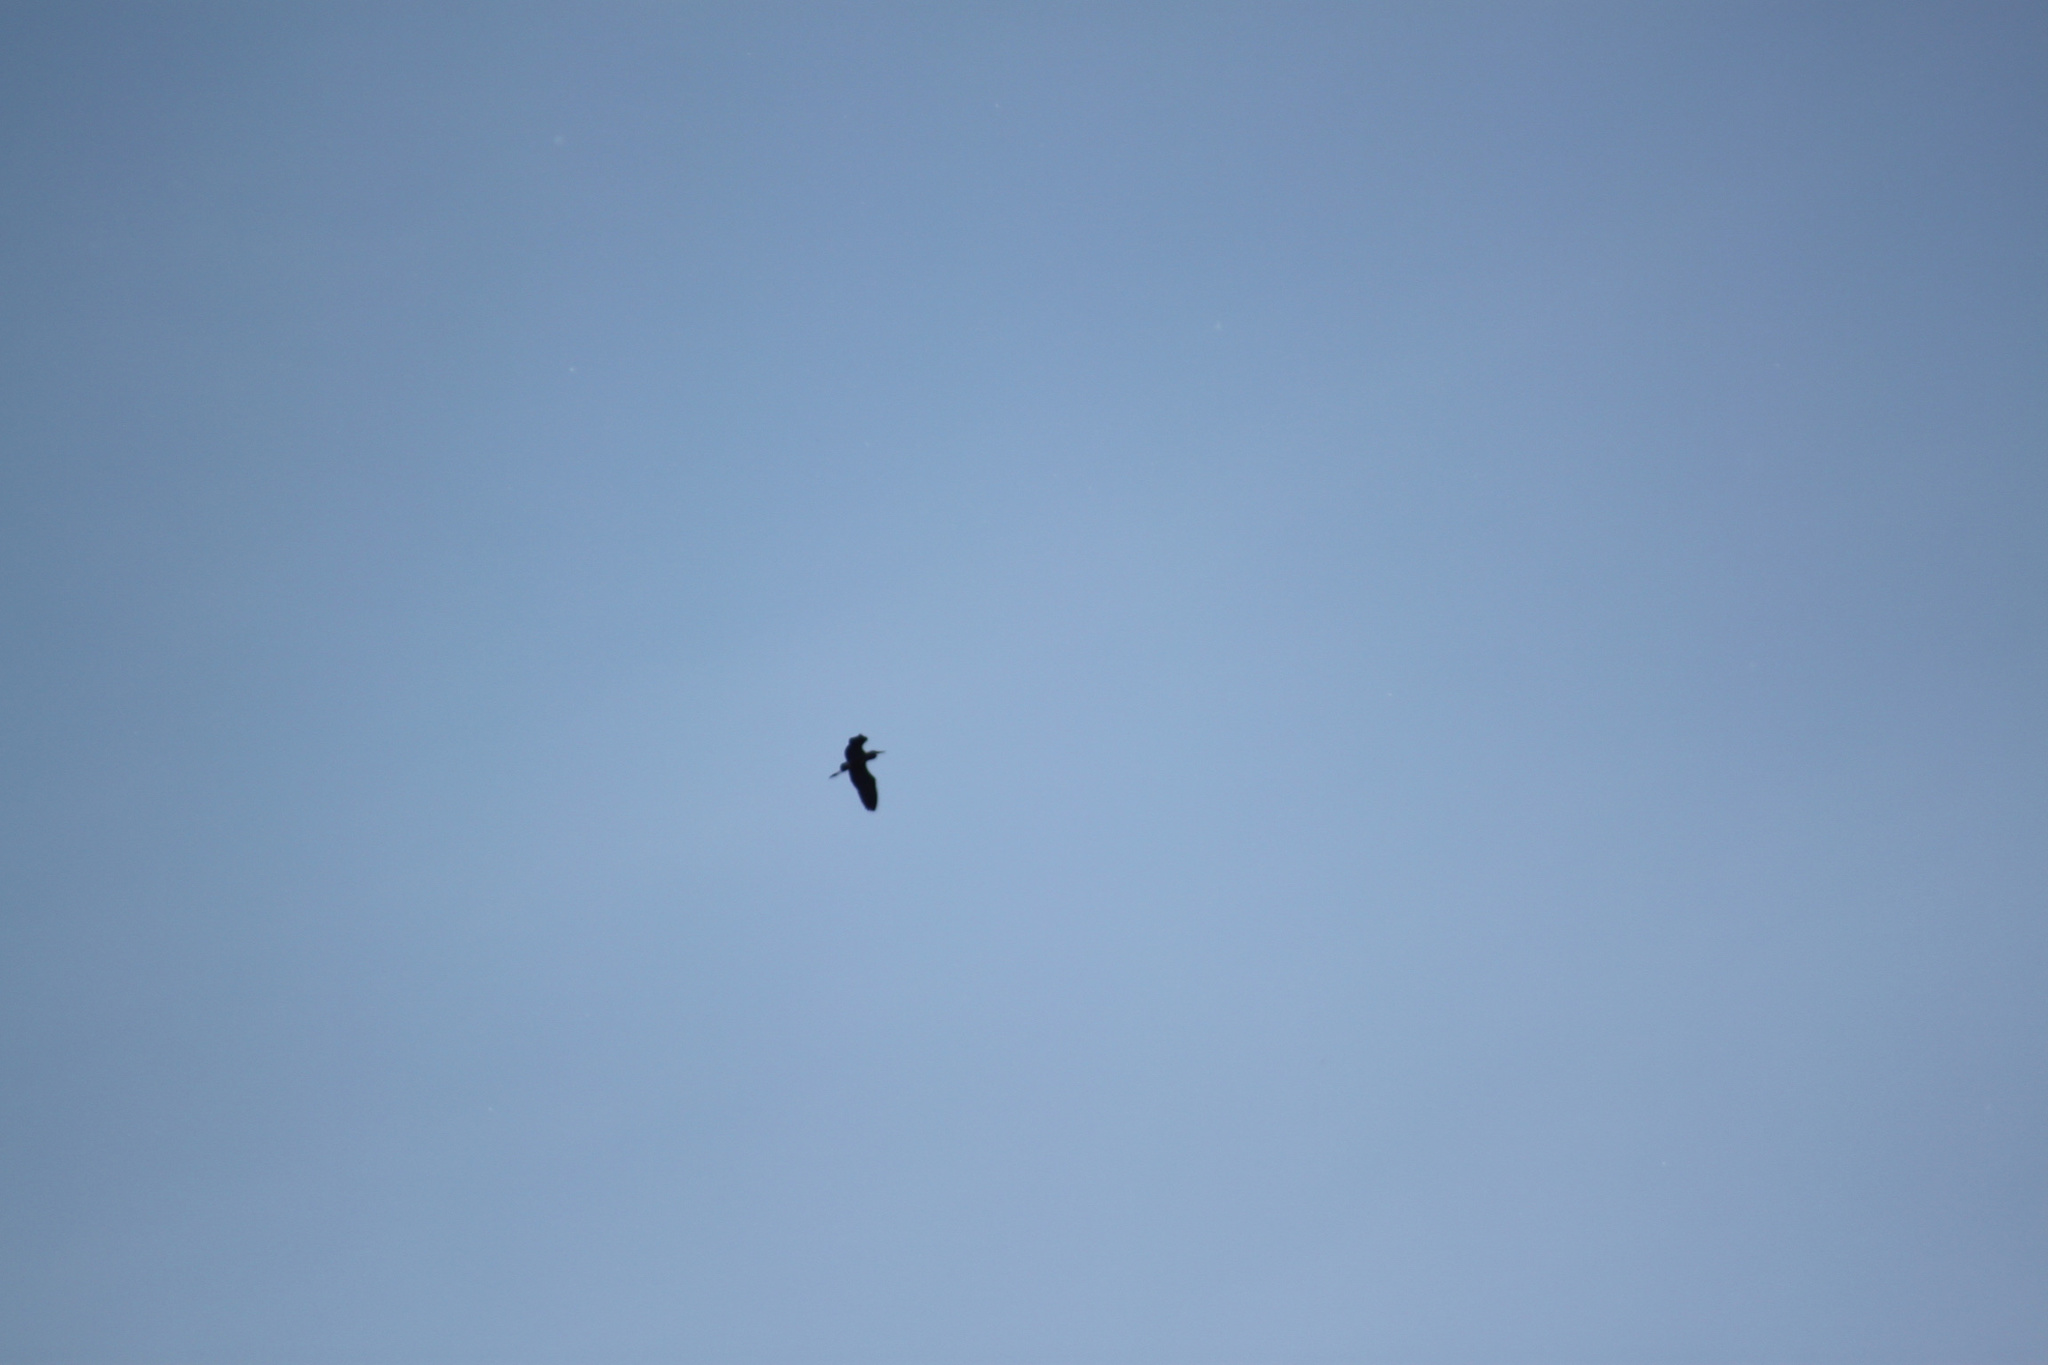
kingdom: Animalia
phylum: Chordata
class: Aves
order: Pelecaniformes
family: Ardeidae
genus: Ardea
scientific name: Ardea herodias
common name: Great blue heron
